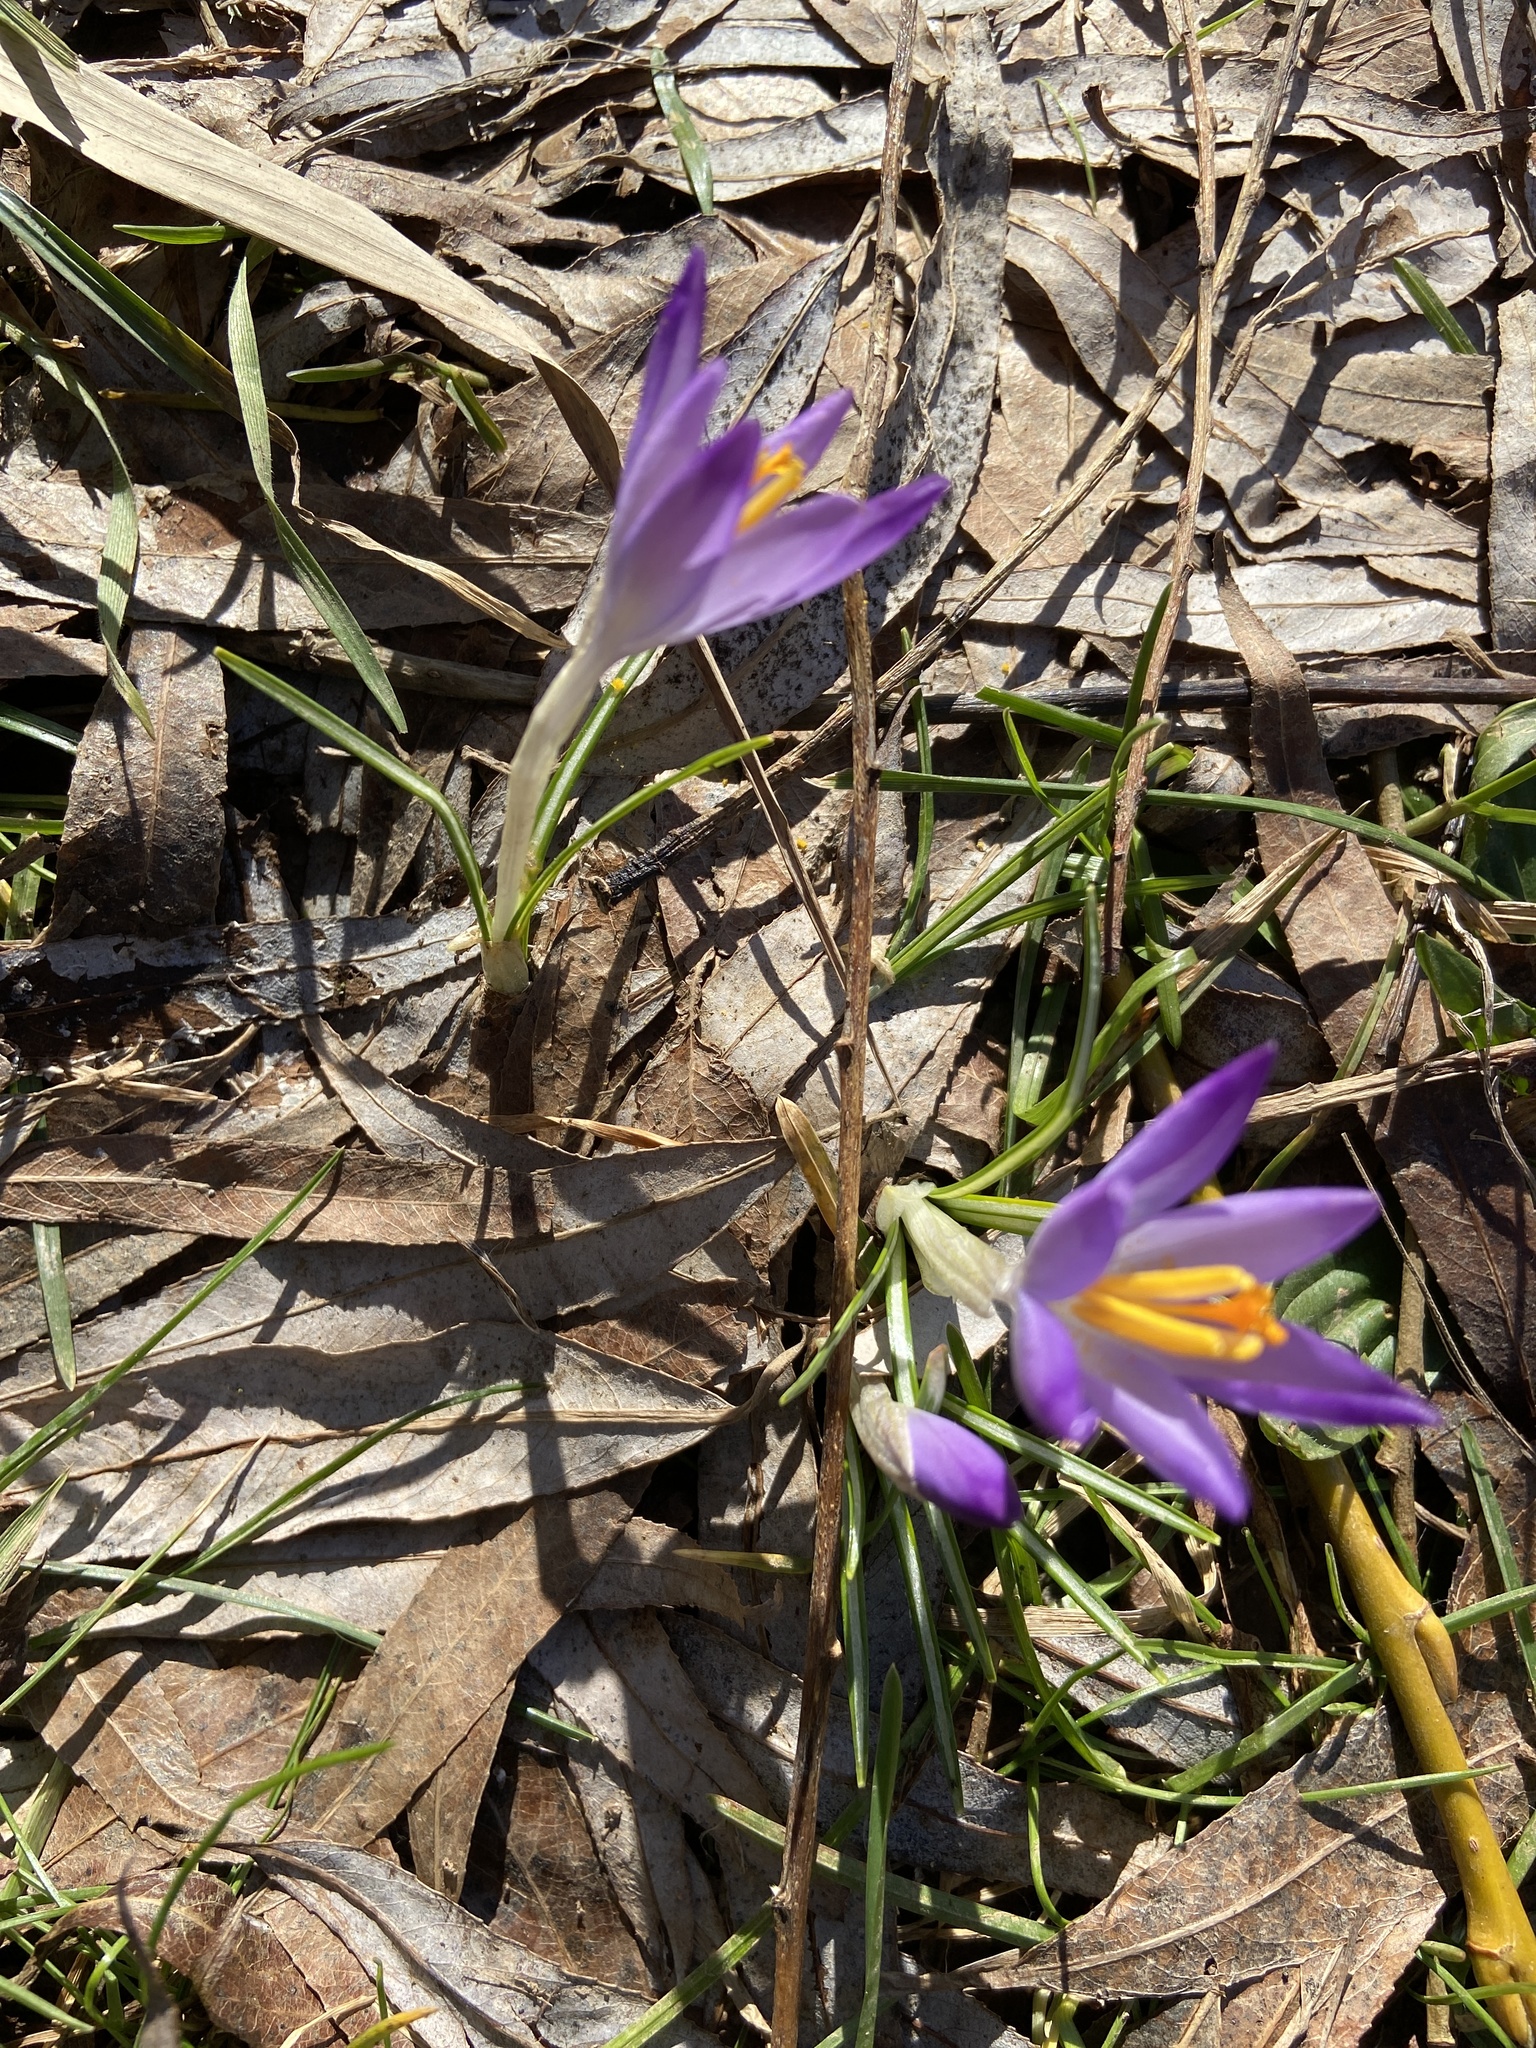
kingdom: Plantae
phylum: Tracheophyta
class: Liliopsida
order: Asparagales
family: Iridaceae
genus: Crocus
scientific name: Crocus tommasinianus
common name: Early crocus
